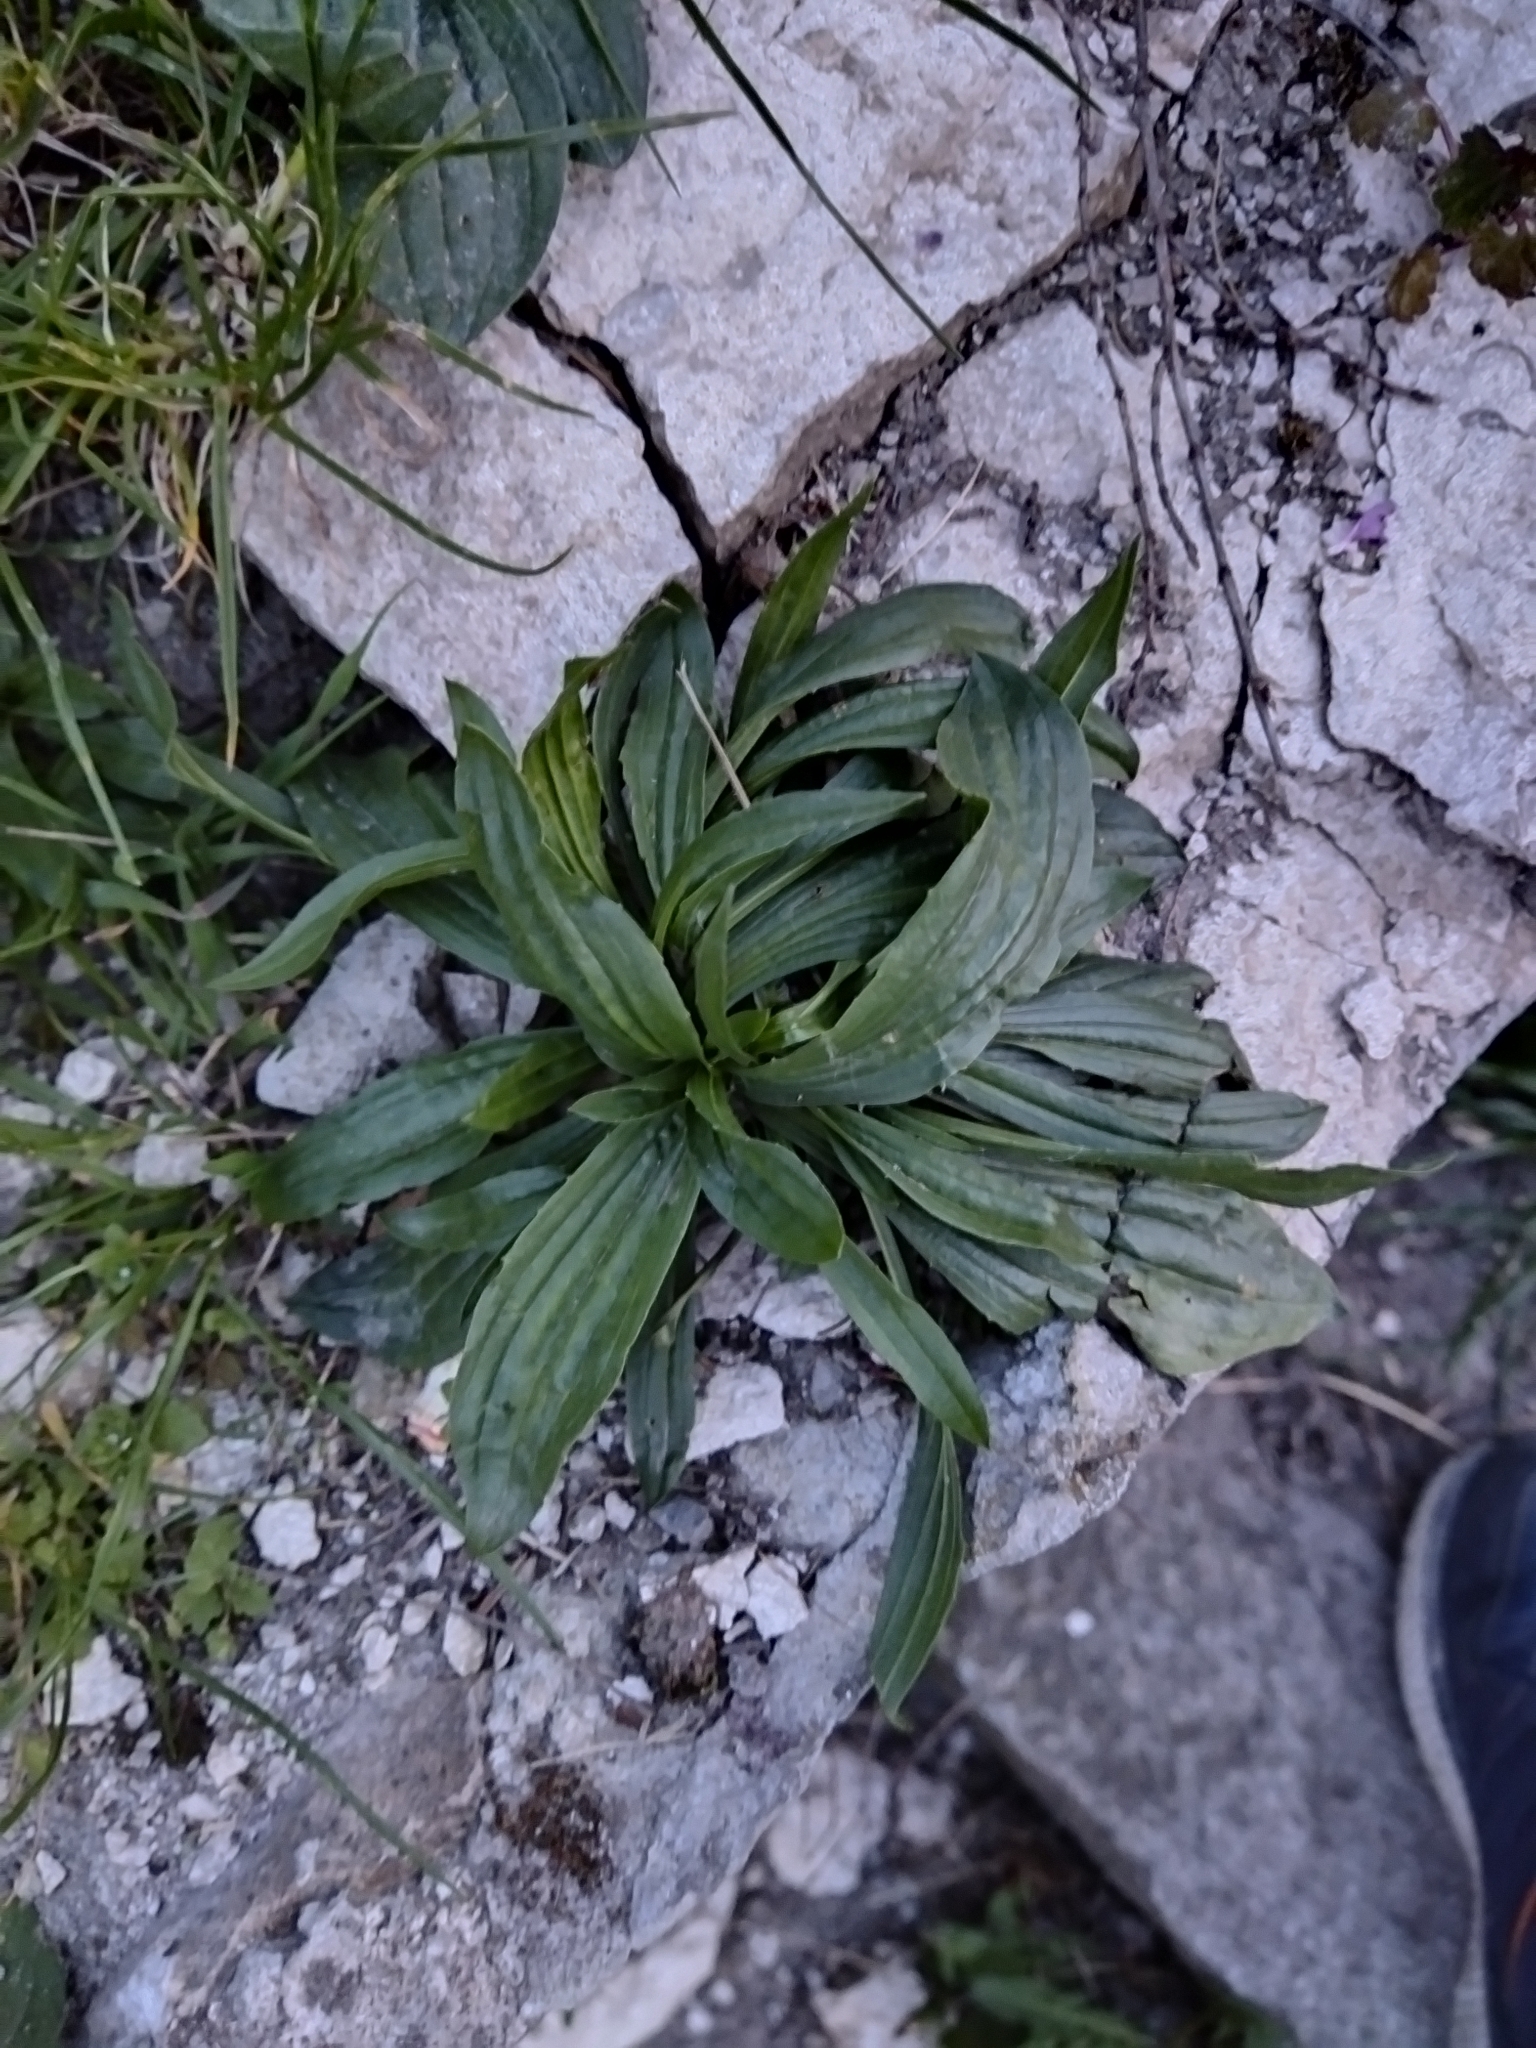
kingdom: Plantae
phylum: Tracheophyta
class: Magnoliopsida
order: Lamiales
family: Plantaginaceae
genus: Plantago
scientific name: Plantago lanceolata
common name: Ribwort plantain
